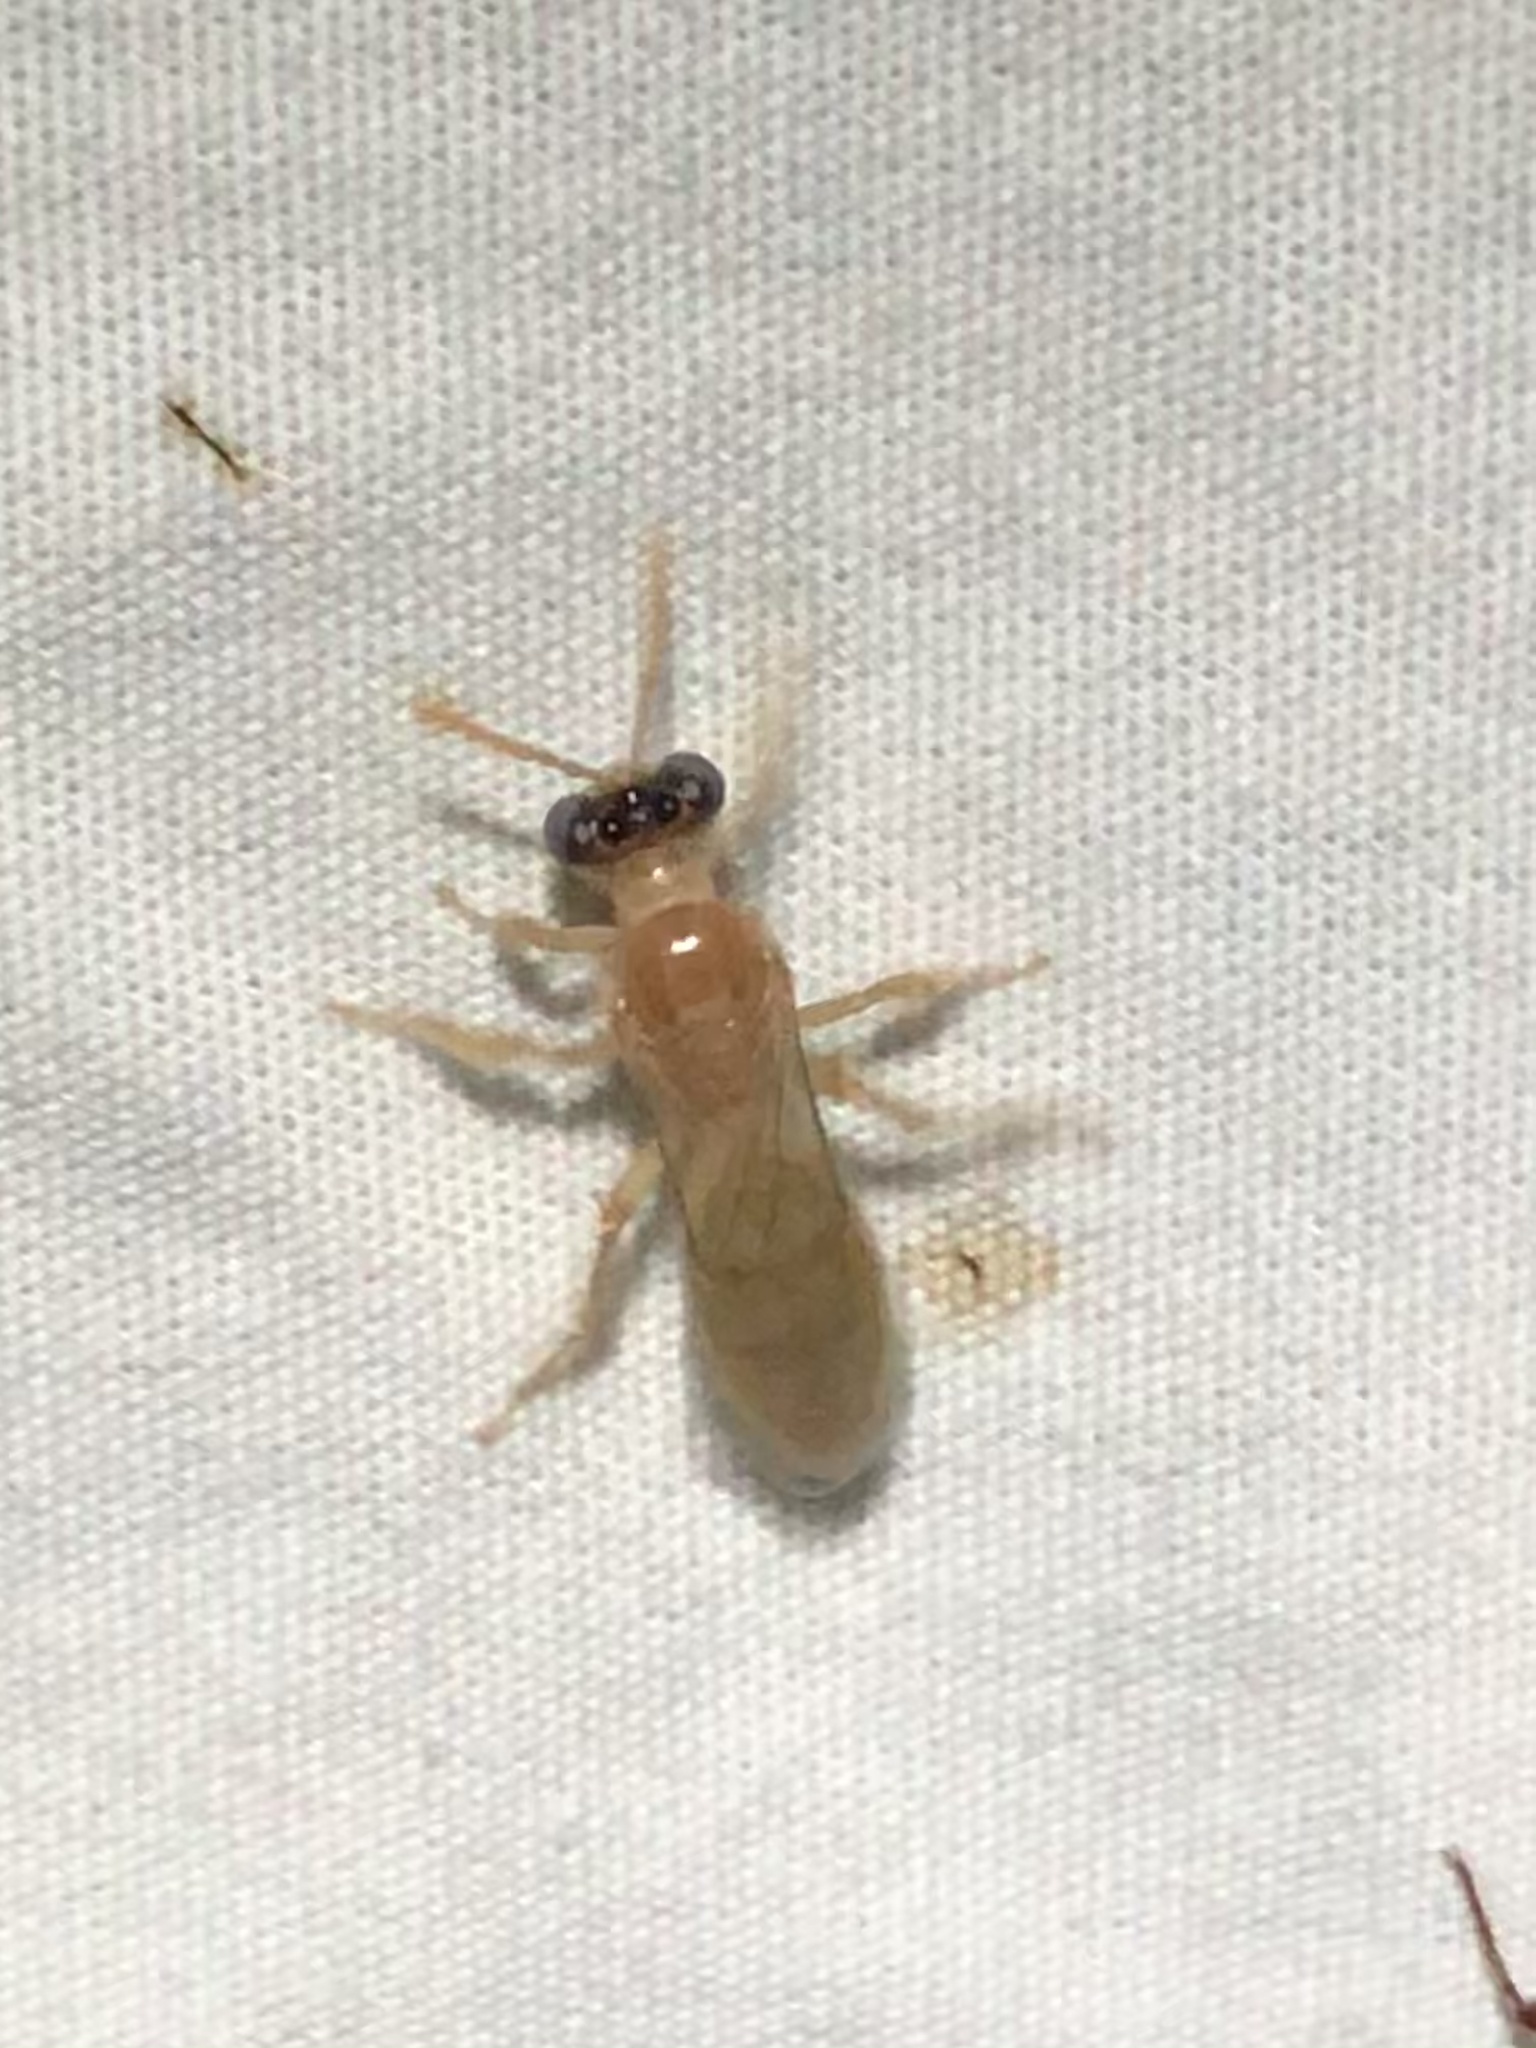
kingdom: Animalia
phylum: Arthropoda
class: Insecta
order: Hymenoptera
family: Andrenidae
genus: Perdita
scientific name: Perdita bequaertiana
